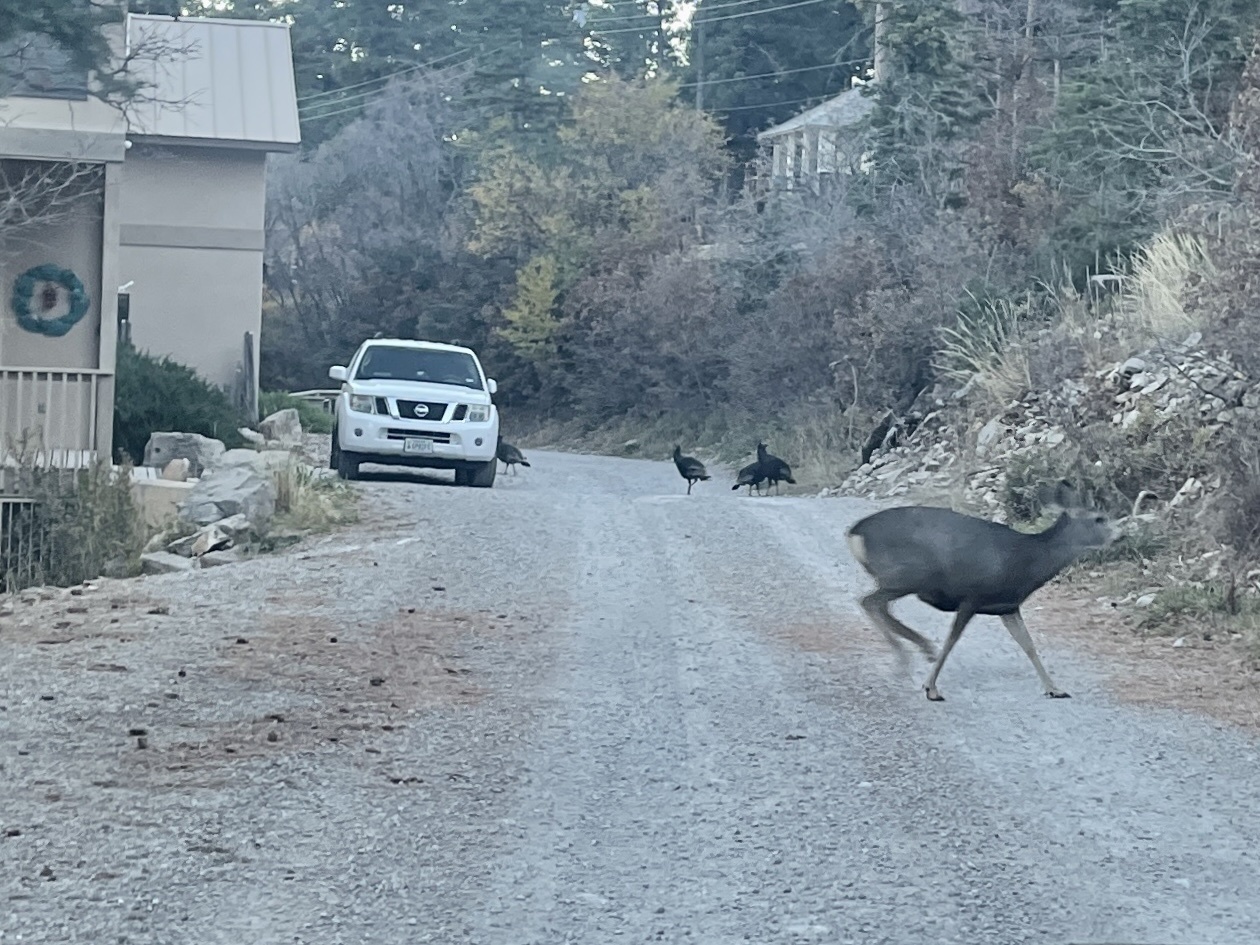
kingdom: Animalia
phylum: Chordata
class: Mammalia
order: Artiodactyla
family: Cervidae
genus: Odocoileus
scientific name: Odocoileus hemionus
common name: Mule deer
